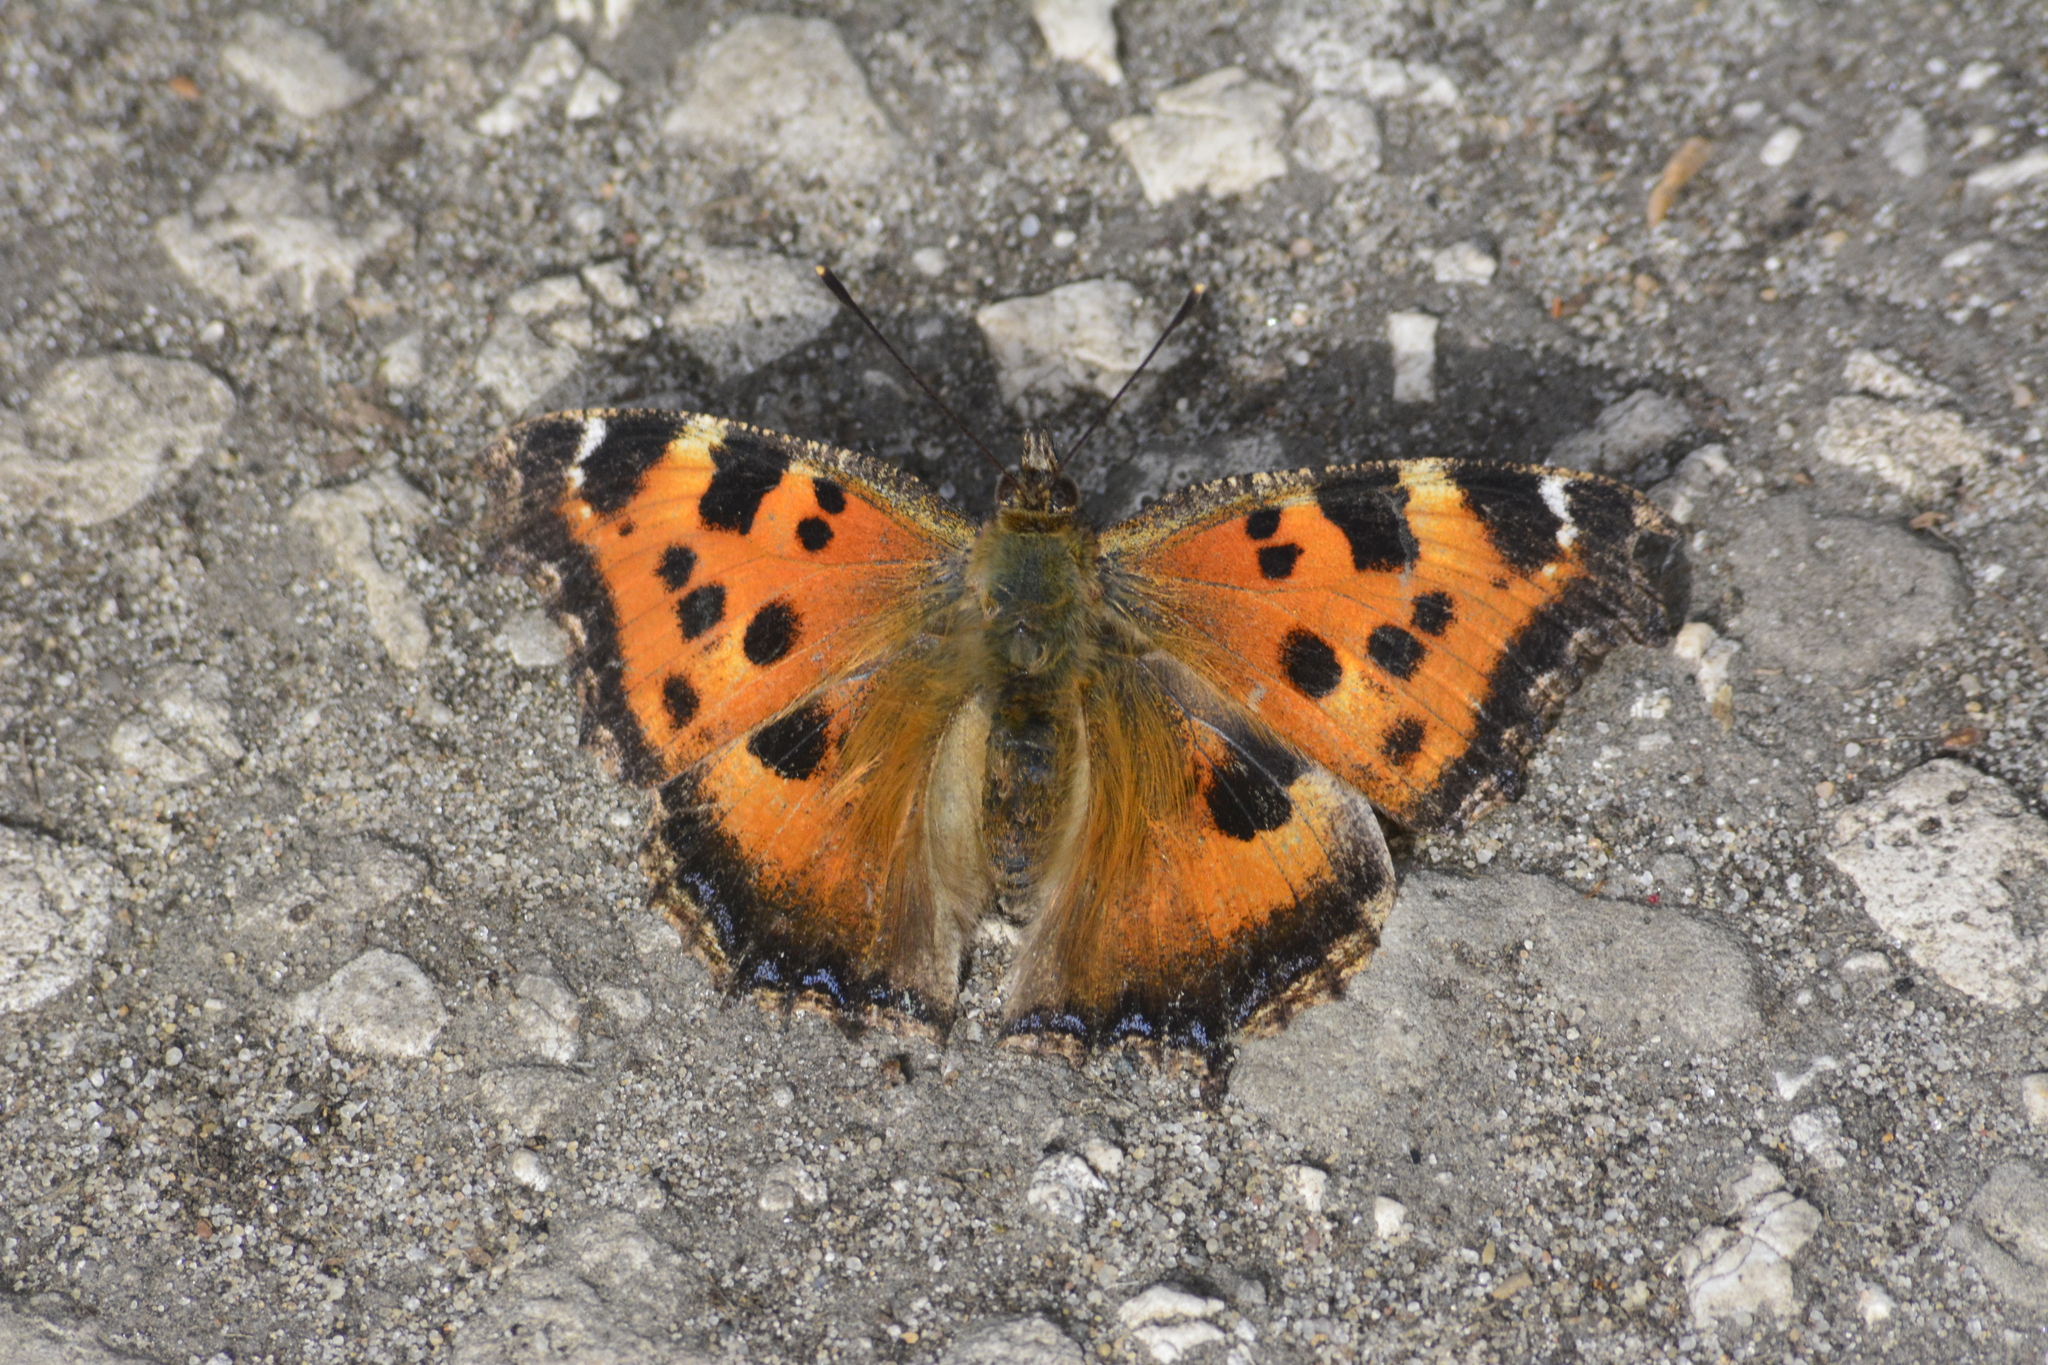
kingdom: Animalia
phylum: Arthropoda
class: Insecta
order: Lepidoptera
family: Nymphalidae
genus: Nymphalis
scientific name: Nymphalis xanthomelas
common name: Scarce tortoiseshell
